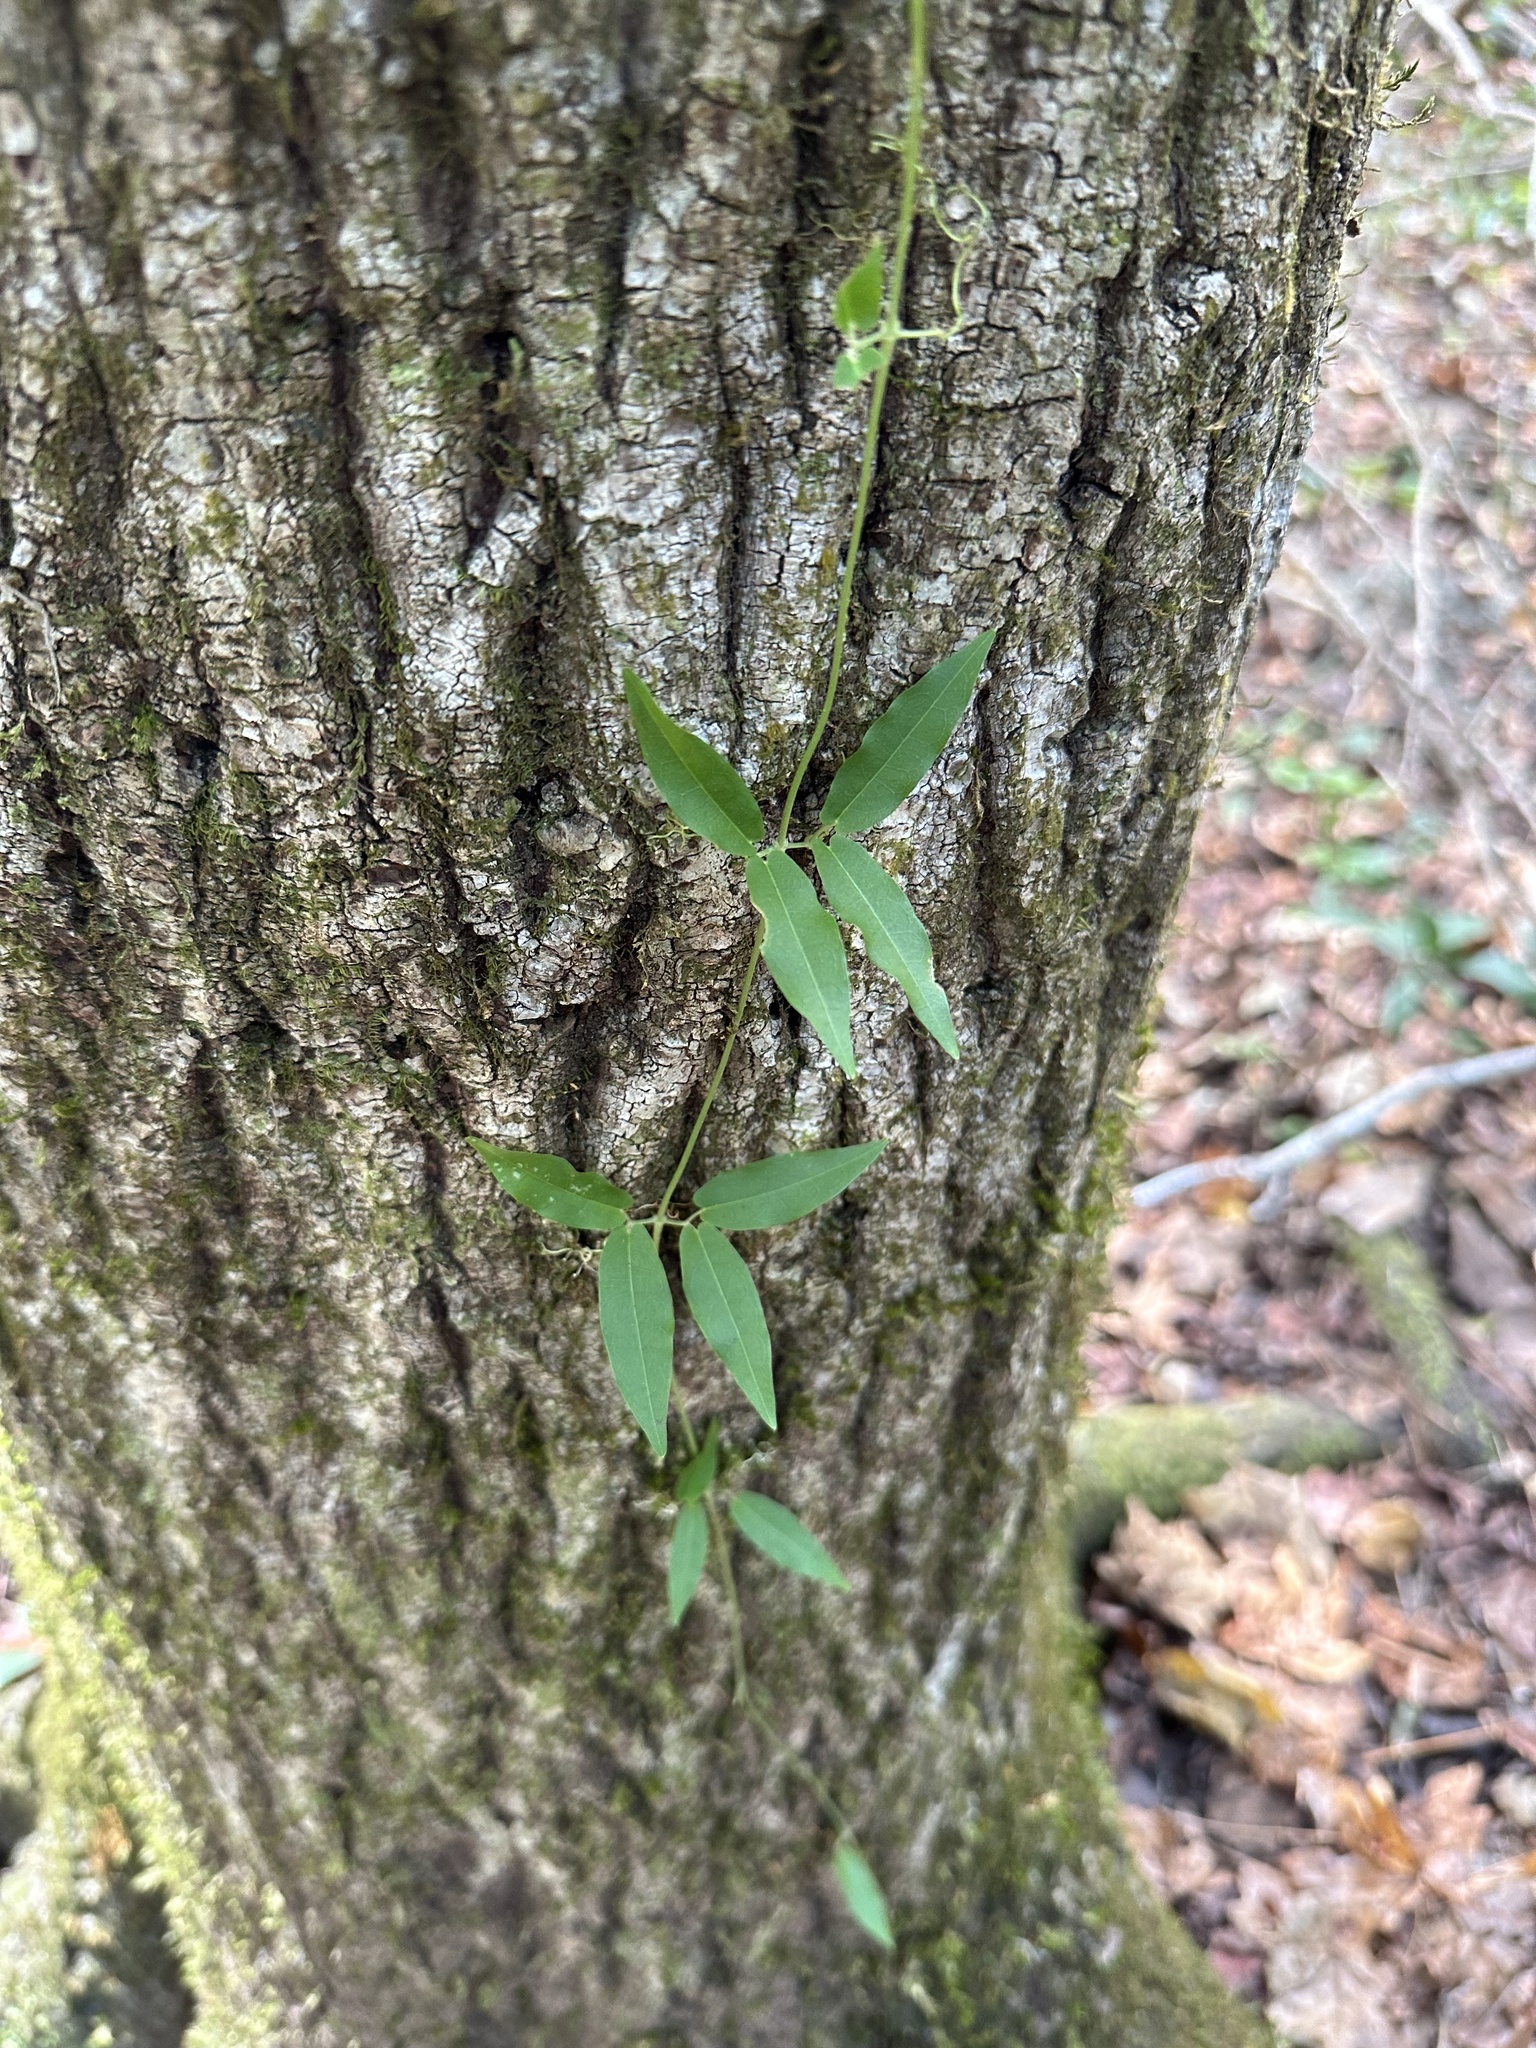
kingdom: Plantae
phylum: Tracheophyta
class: Magnoliopsida
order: Lamiales
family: Bignoniaceae
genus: Bignonia
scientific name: Bignonia capreolata
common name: Crossvine
